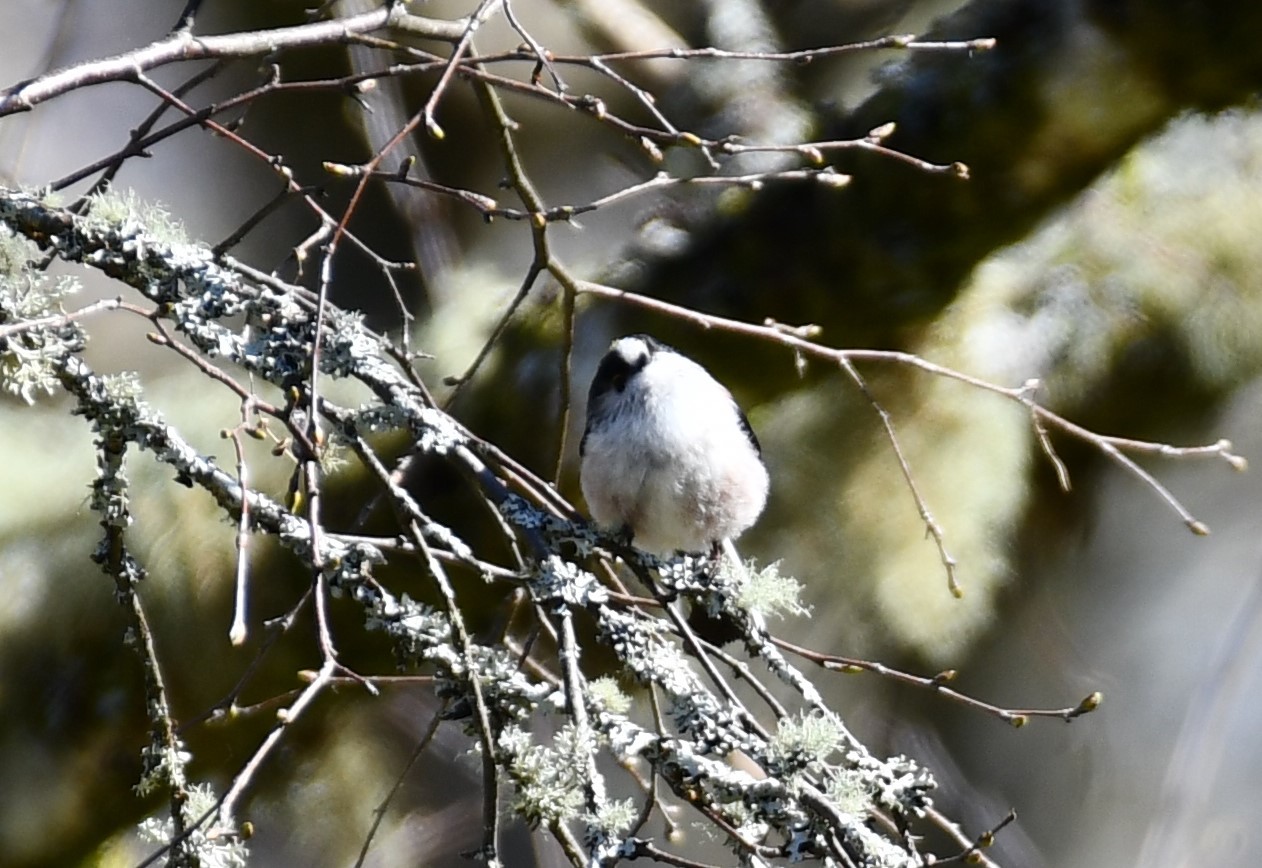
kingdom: Animalia
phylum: Chordata
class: Aves
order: Passeriformes
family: Aegithalidae
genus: Aegithalos
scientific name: Aegithalos caudatus
